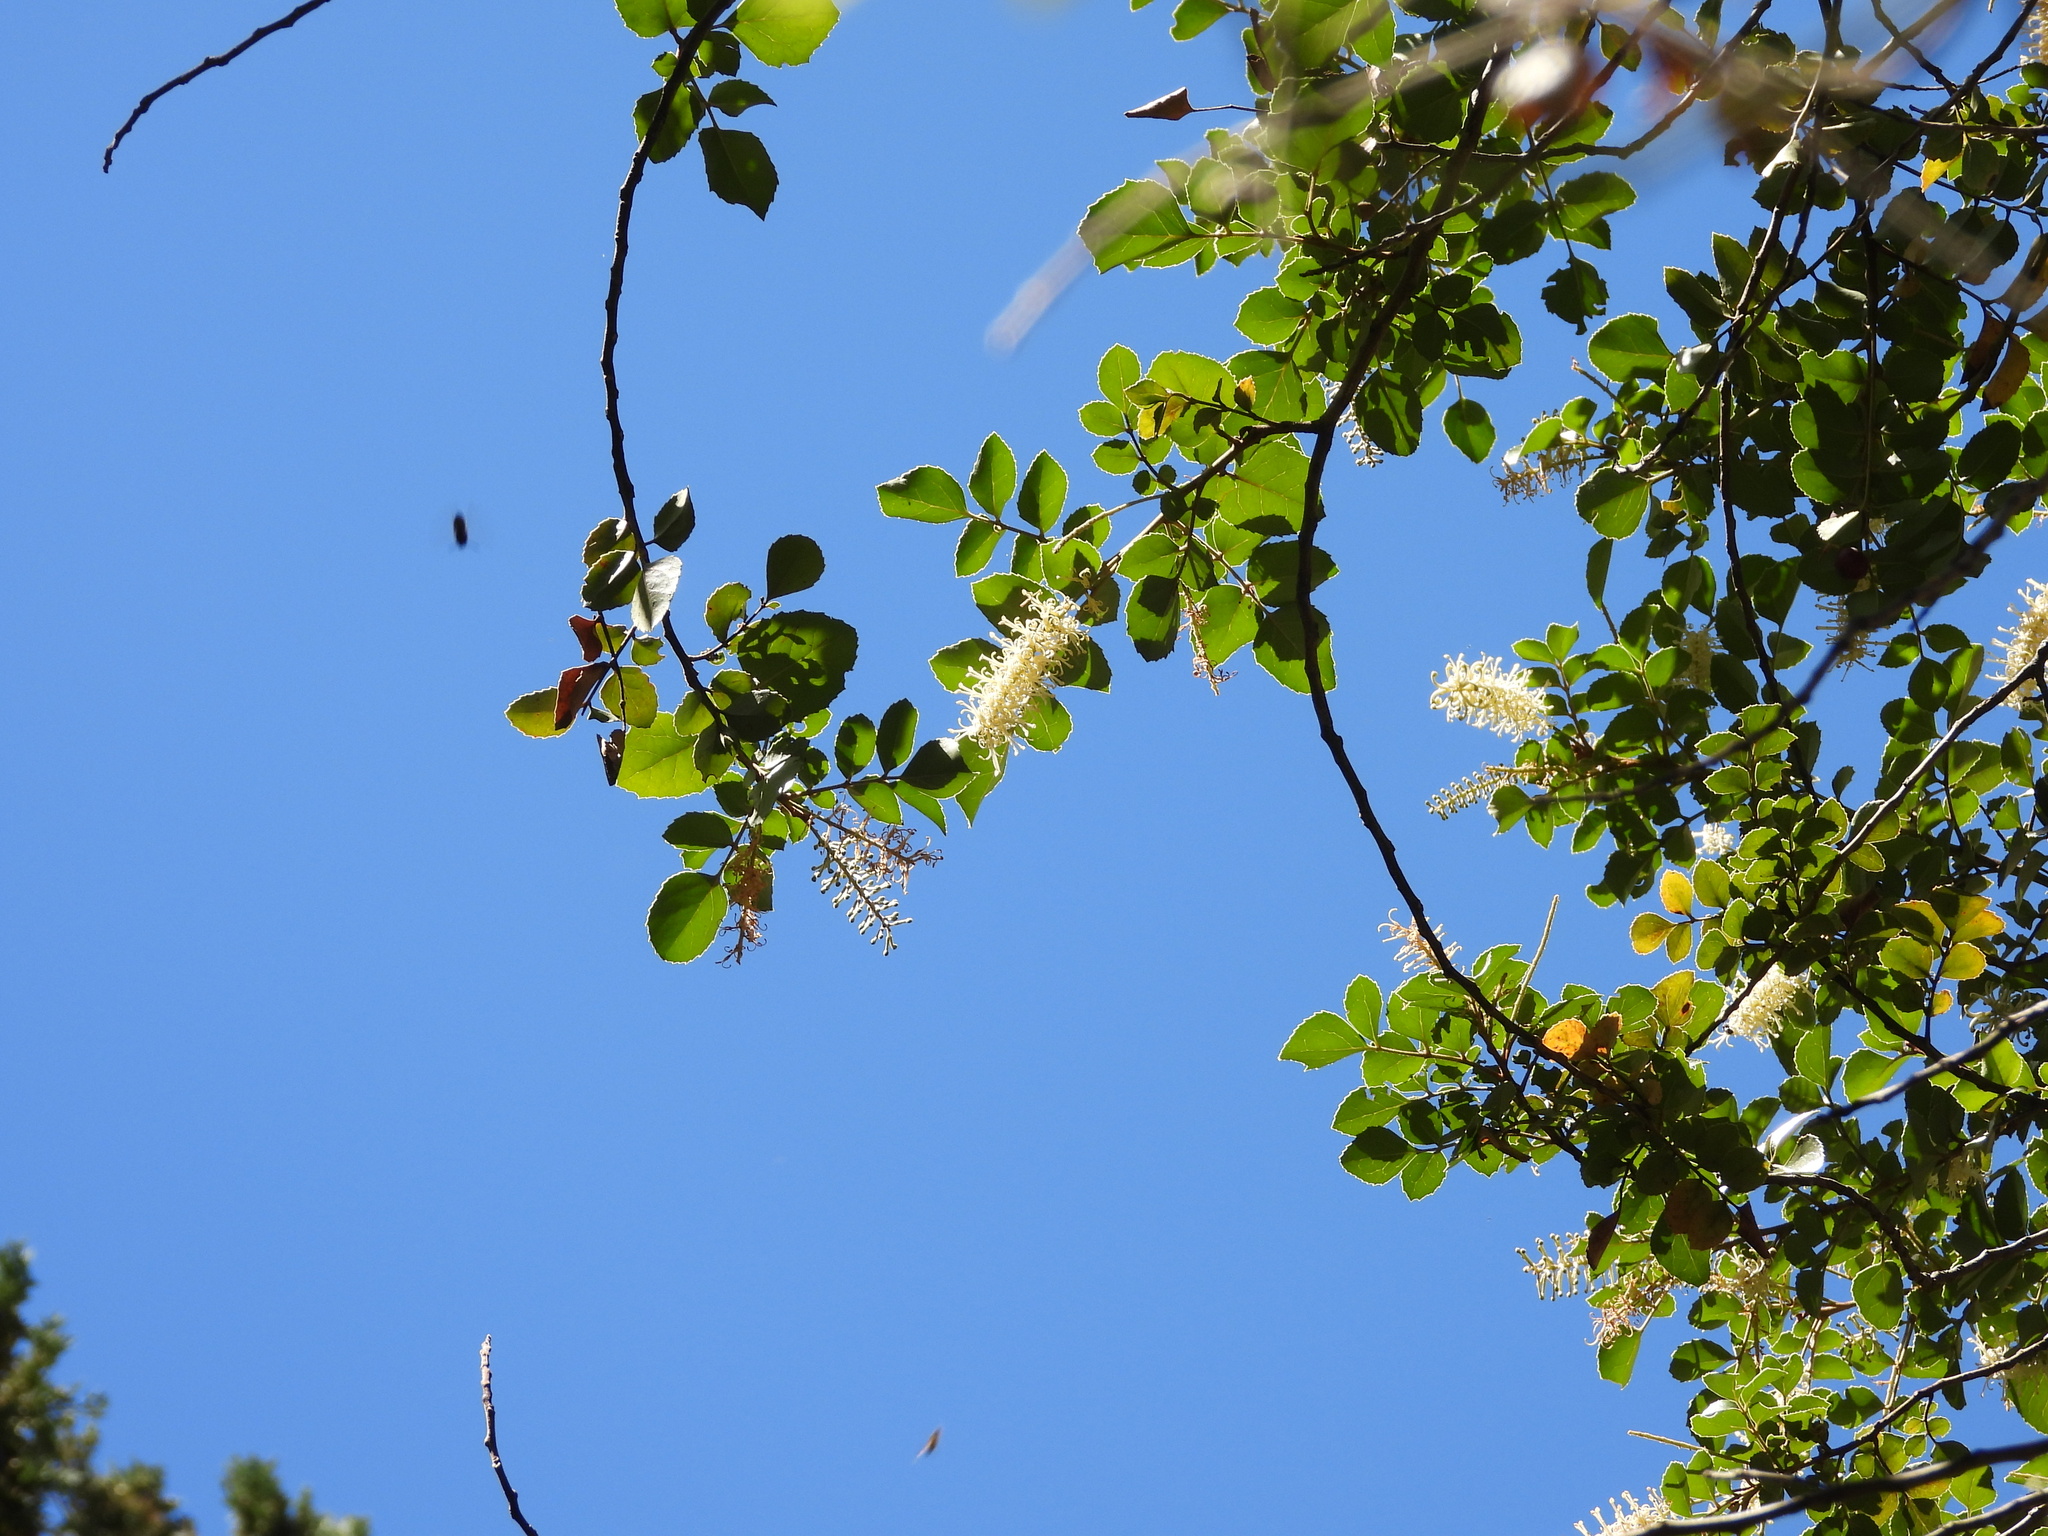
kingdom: Plantae
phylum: Tracheophyta
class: Magnoliopsida
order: Proteales
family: Proteaceae
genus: Gevuina
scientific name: Gevuina avellana
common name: Chilean hazel
